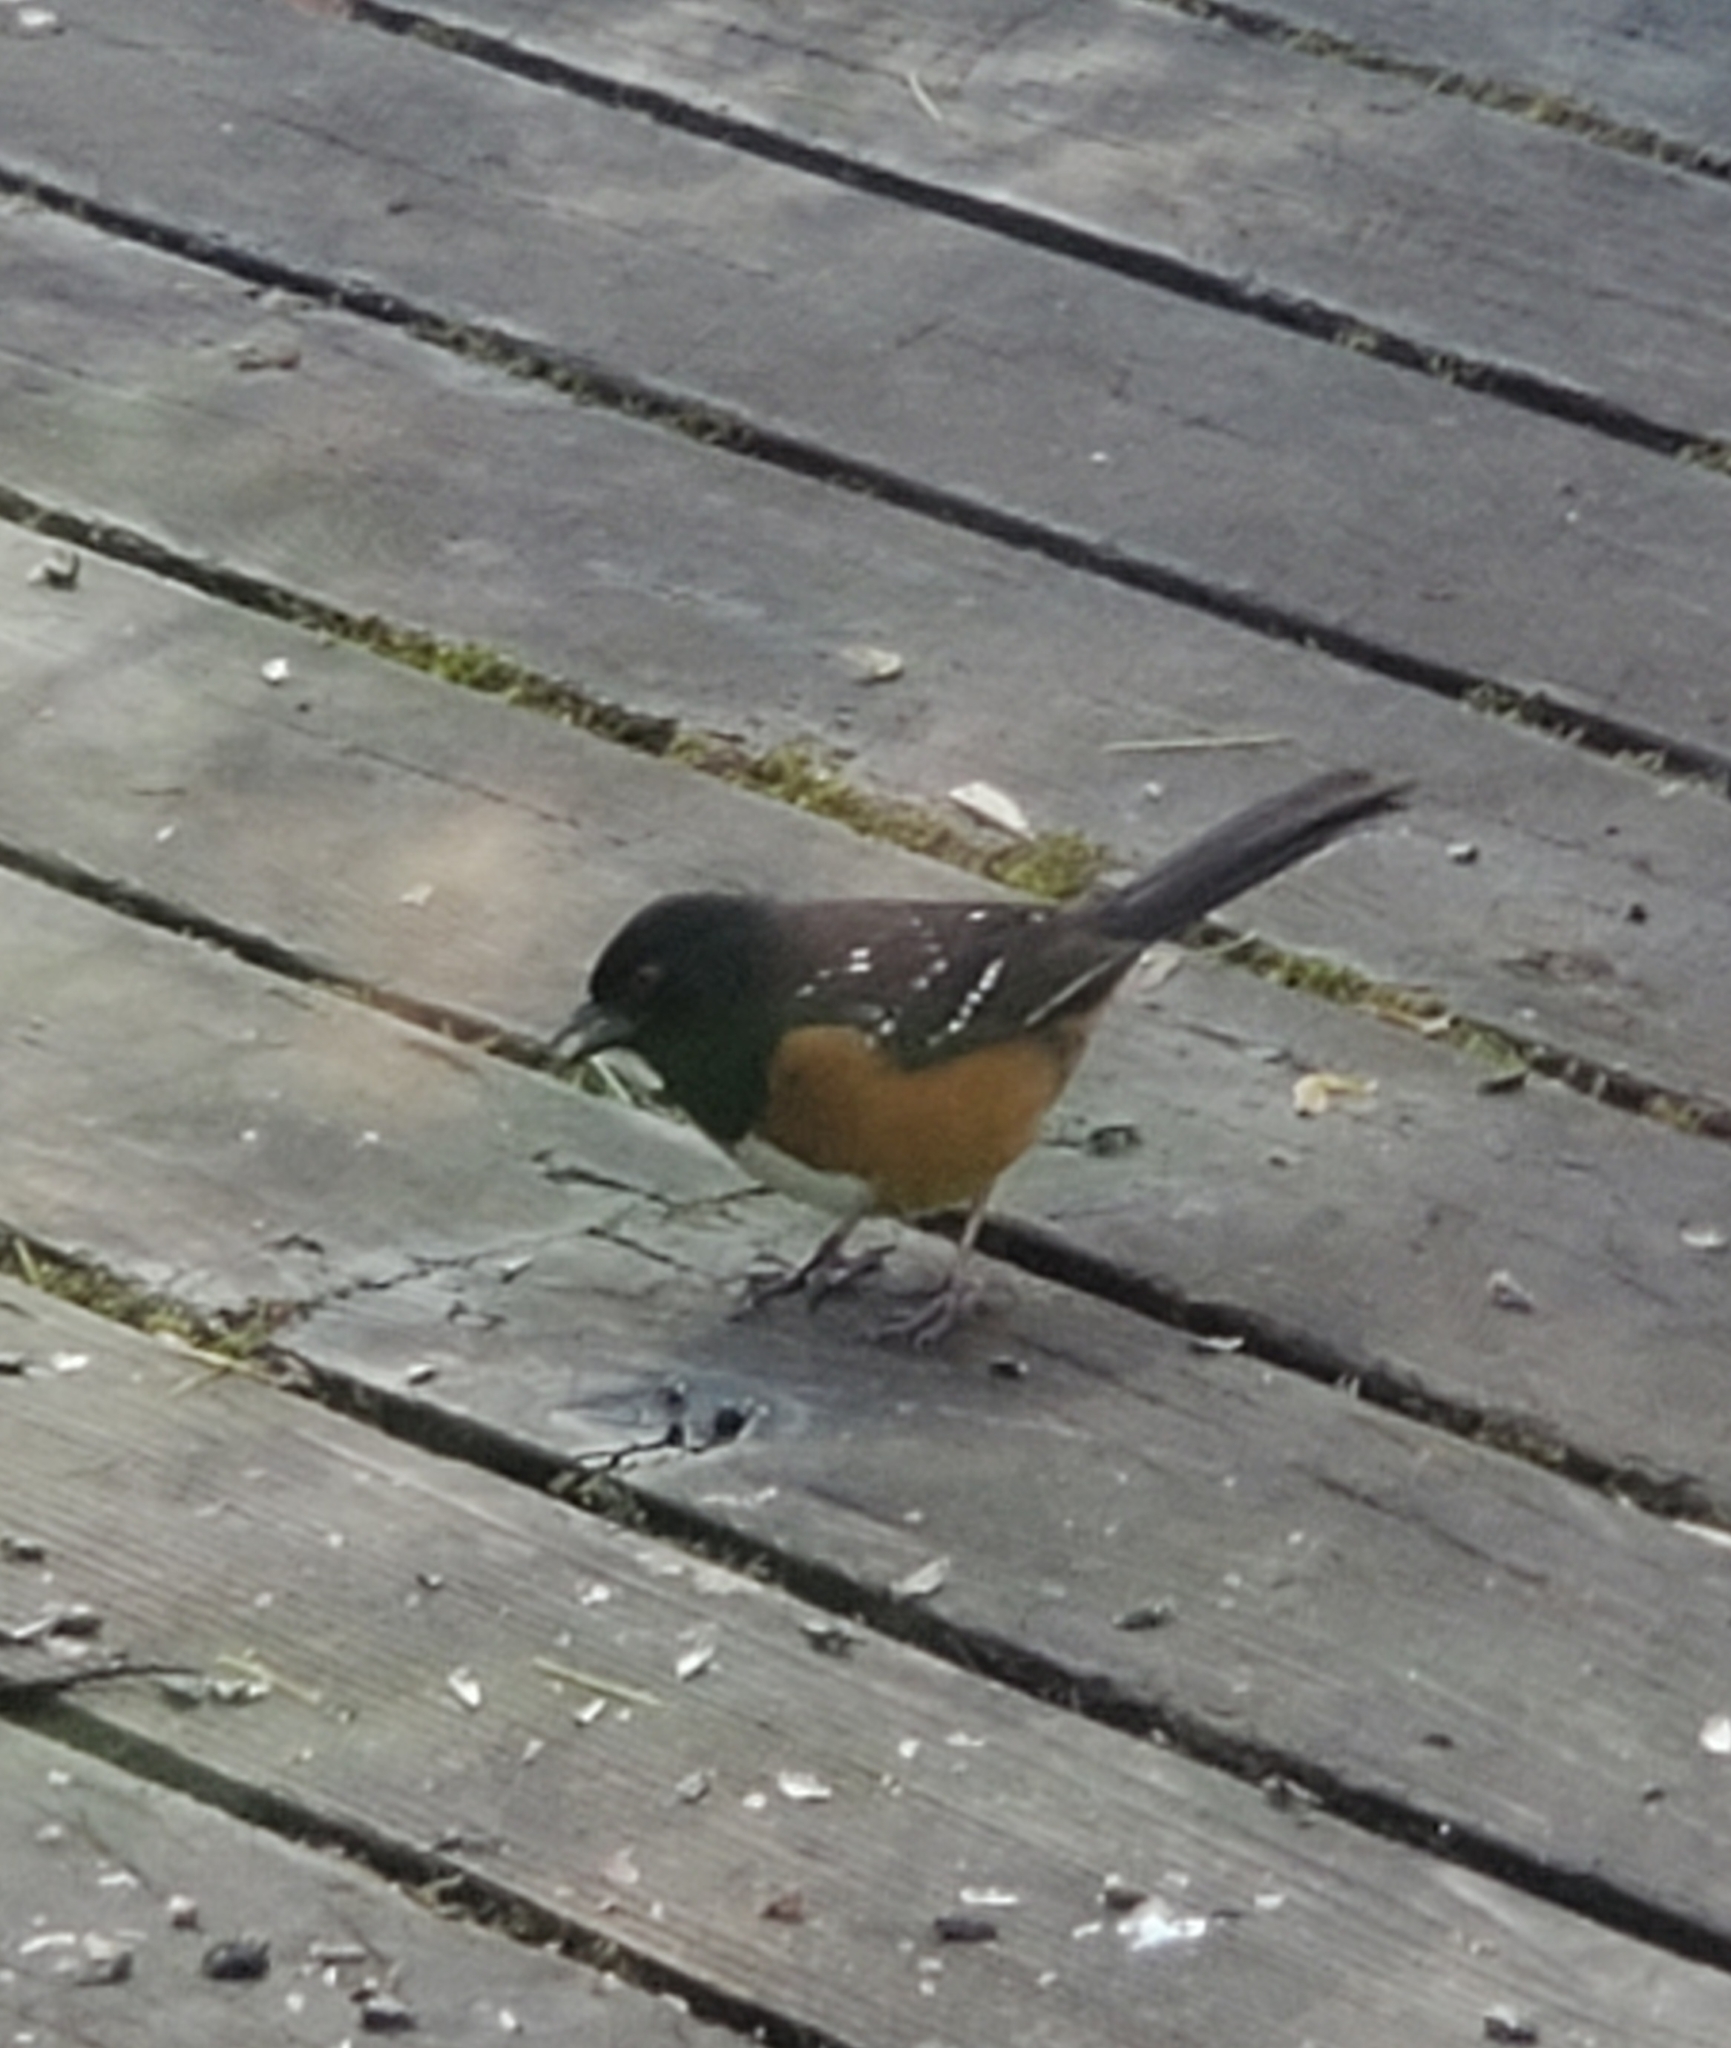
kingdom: Animalia
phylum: Chordata
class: Aves
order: Passeriformes
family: Passerellidae
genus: Pipilo
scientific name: Pipilo maculatus
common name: Spotted towhee
